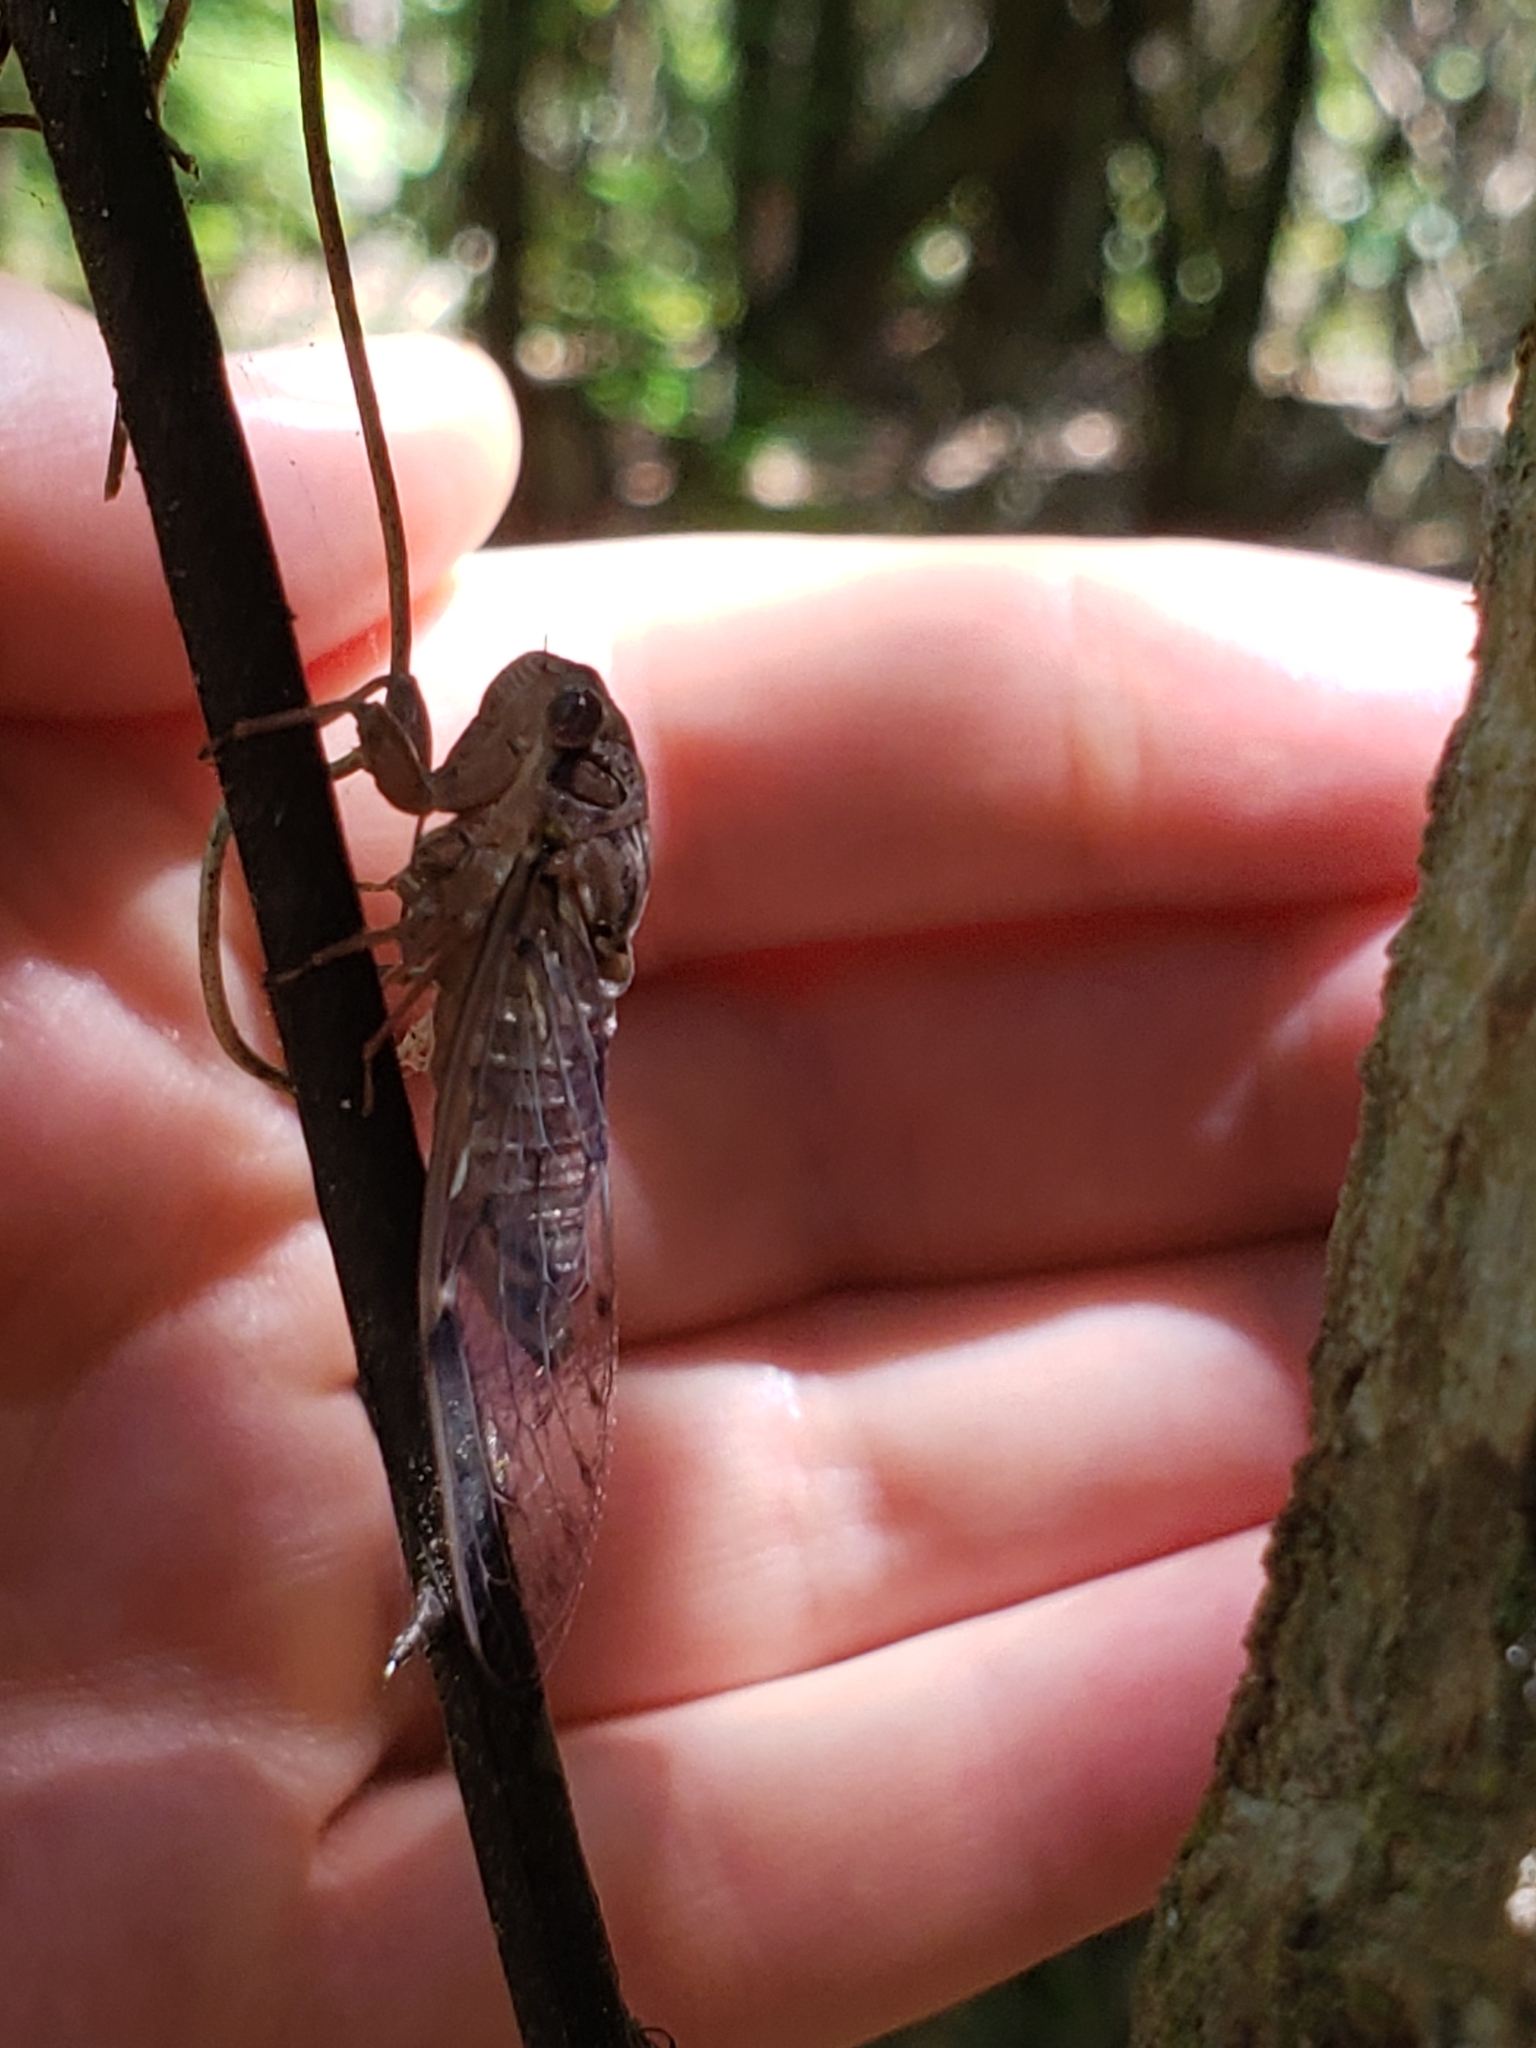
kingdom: Animalia
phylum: Arthropoda
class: Insecta
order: Hemiptera
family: Cicadidae
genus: Neocicada
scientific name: Neocicada hieroglyphica
